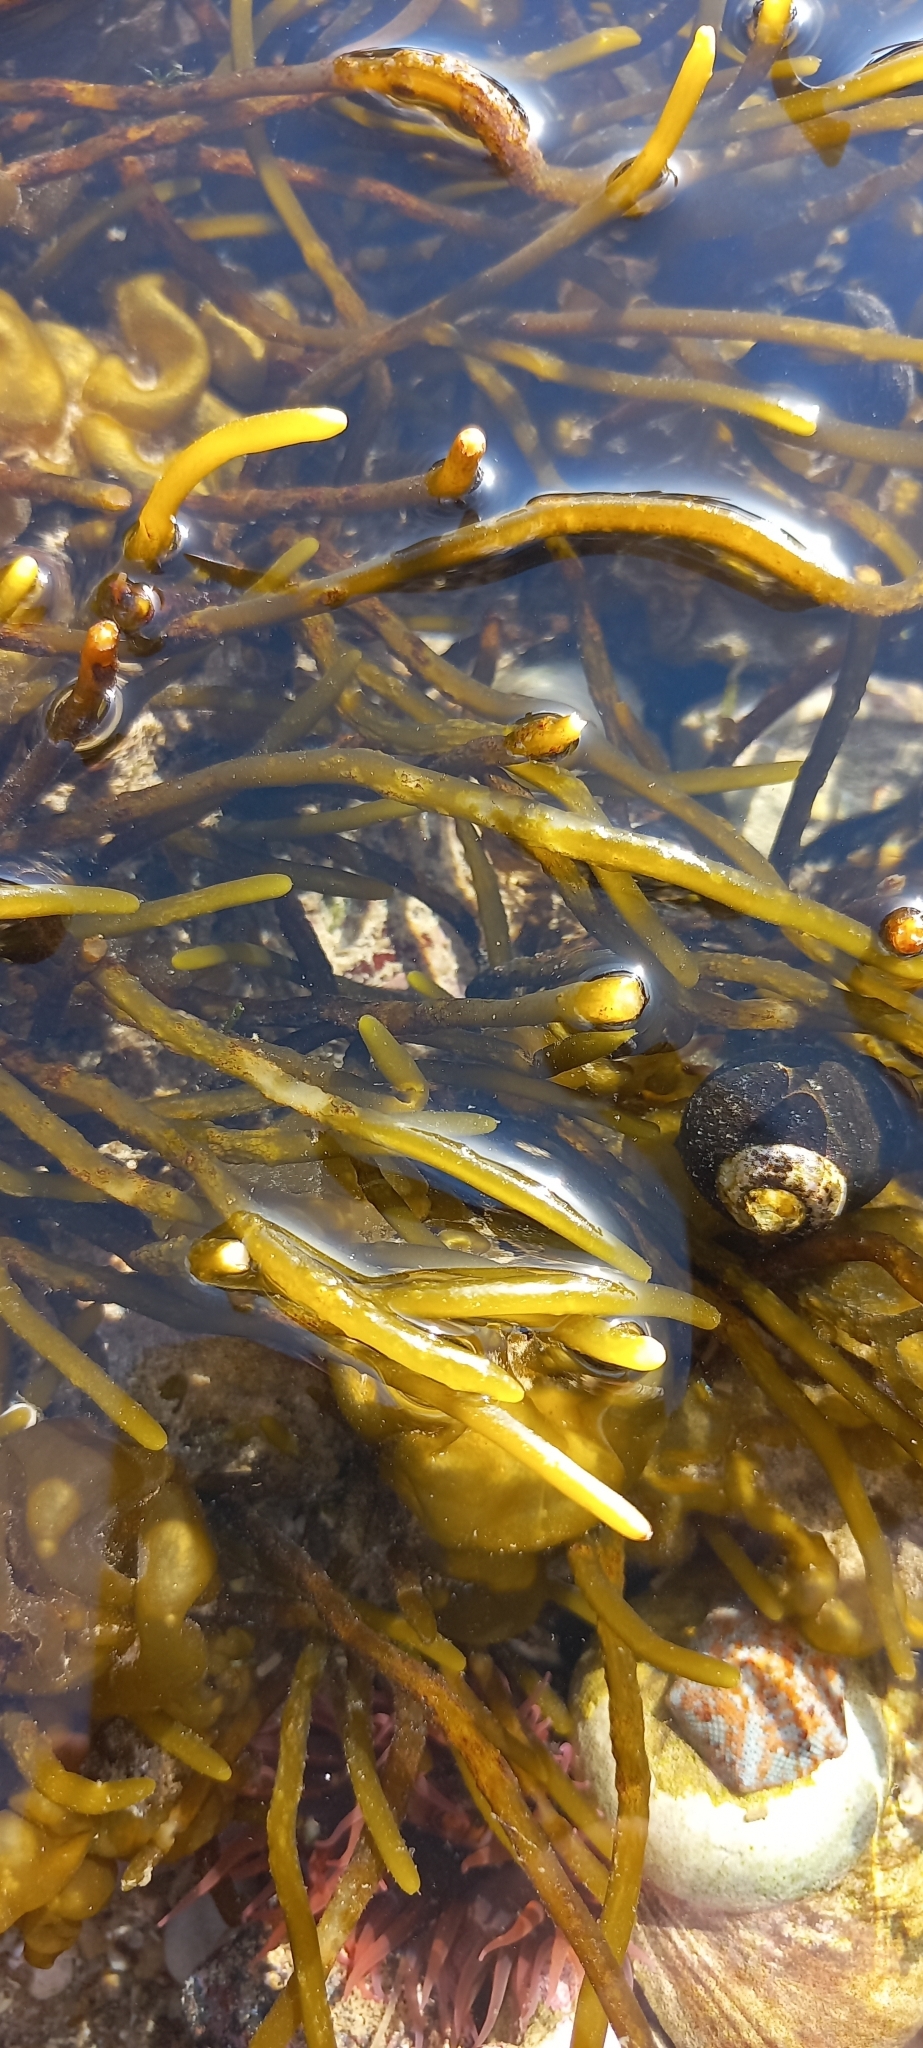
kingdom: Chromista
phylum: Ochrophyta
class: Phaeophyceae
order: Fucales
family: Sargassaceae
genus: Brassicophycus
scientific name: Brassicophycus
